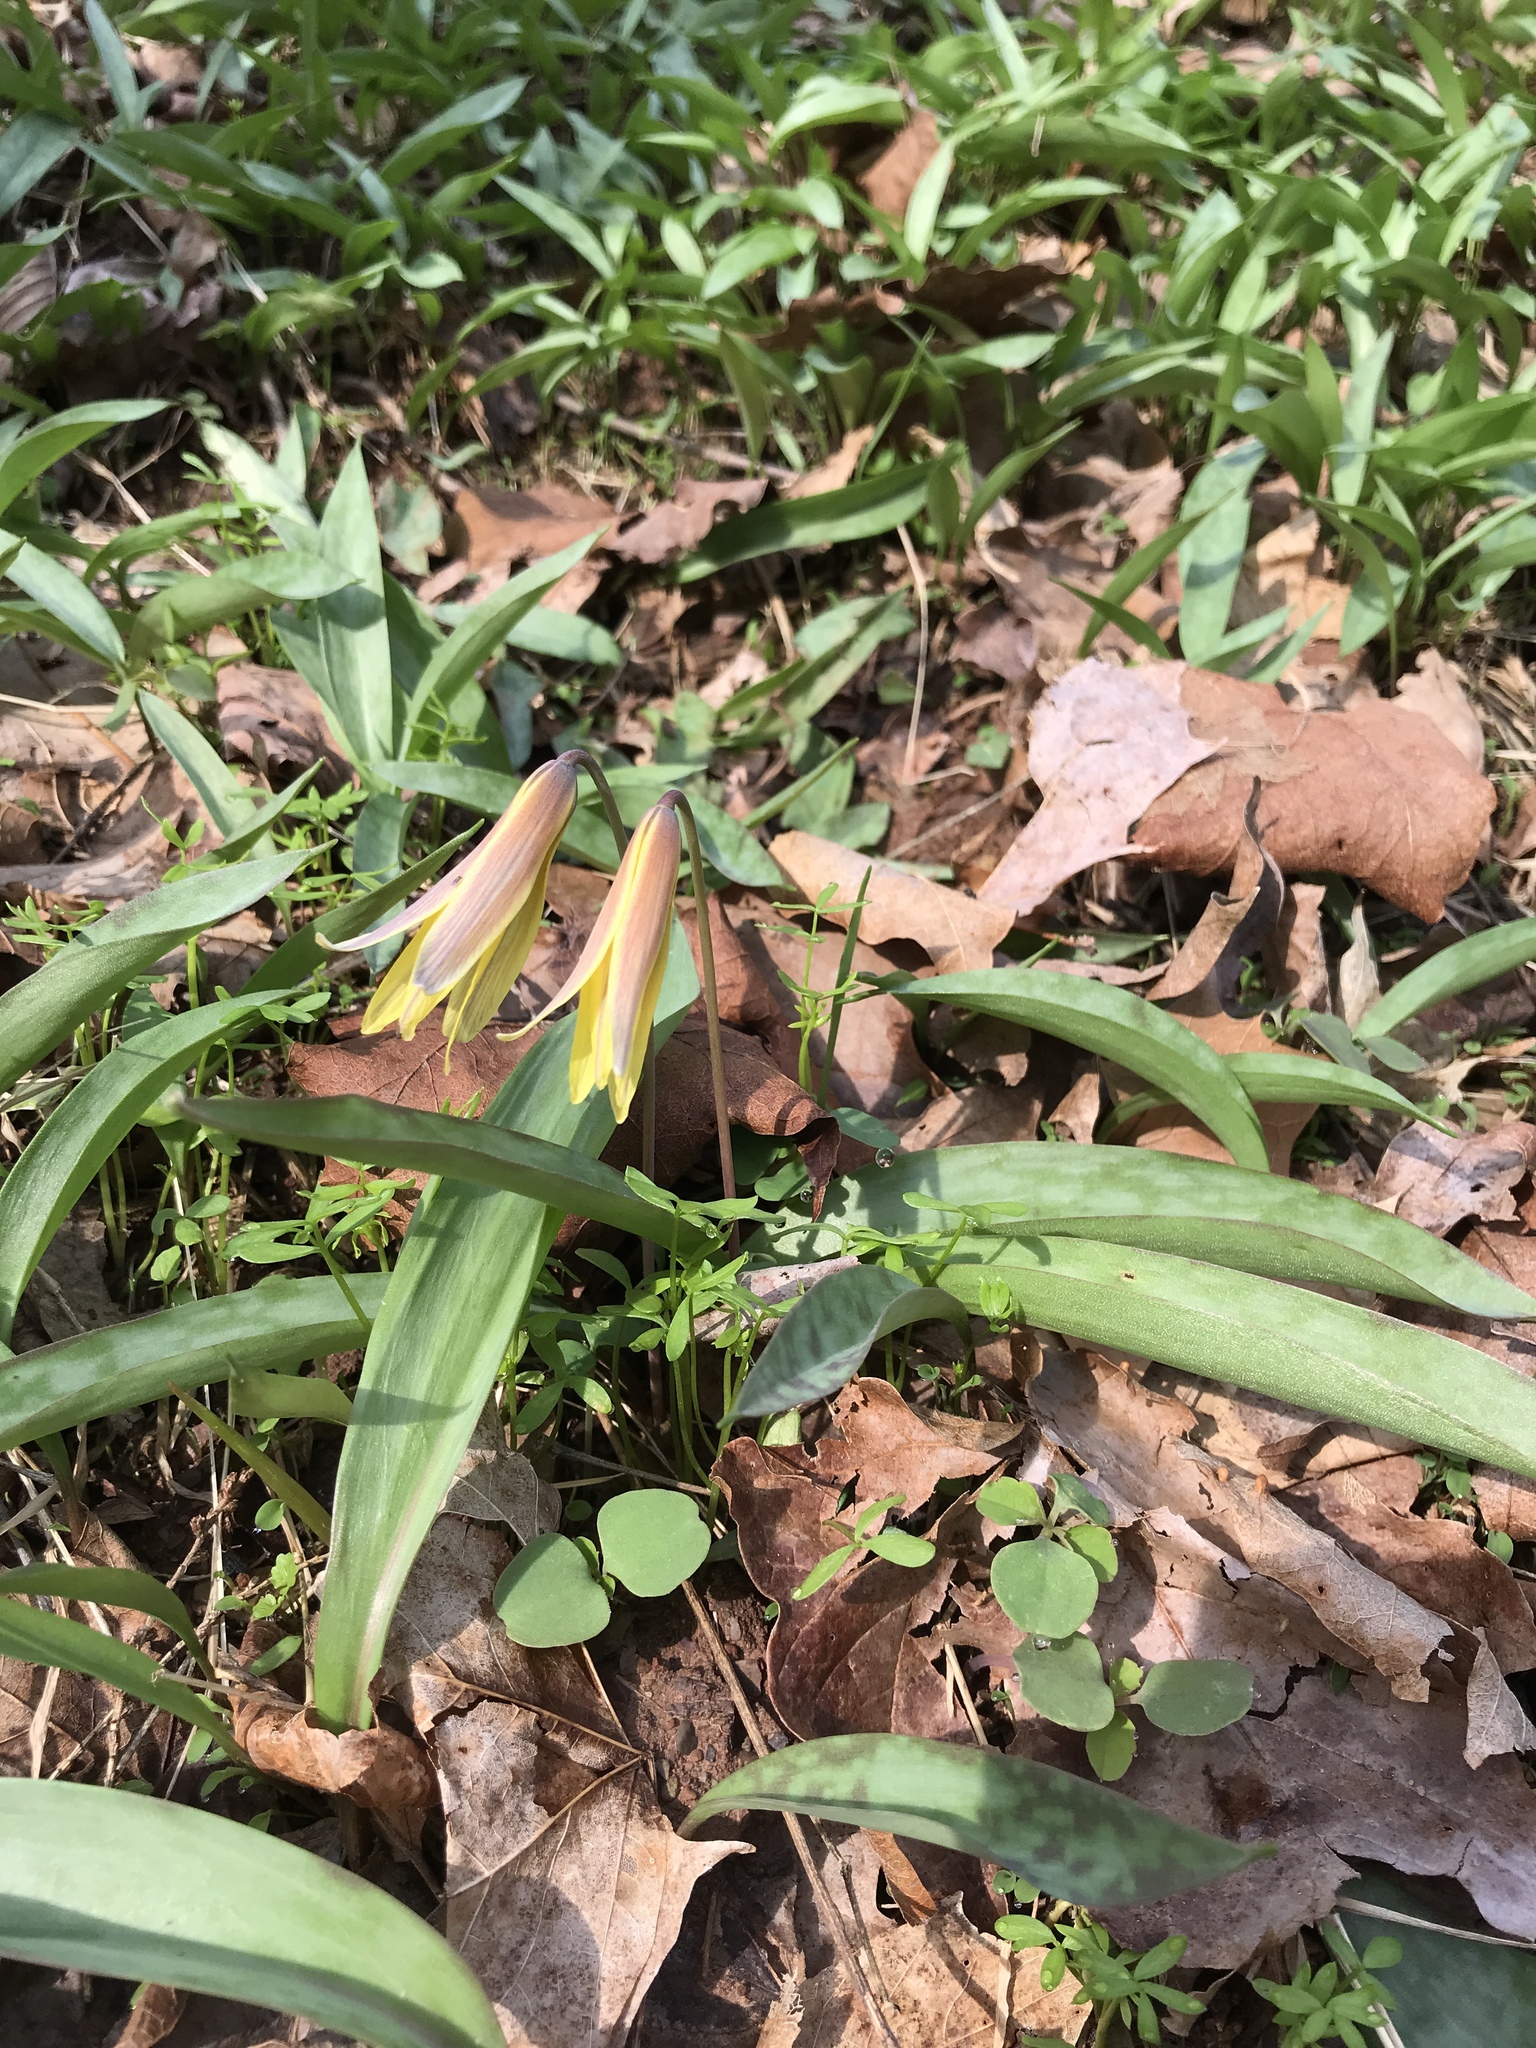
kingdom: Plantae
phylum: Tracheophyta
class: Liliopsida
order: Liliales
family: Liliaceae
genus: Erythronium
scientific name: Erythronium americanum
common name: Yellow adder's-tongue
